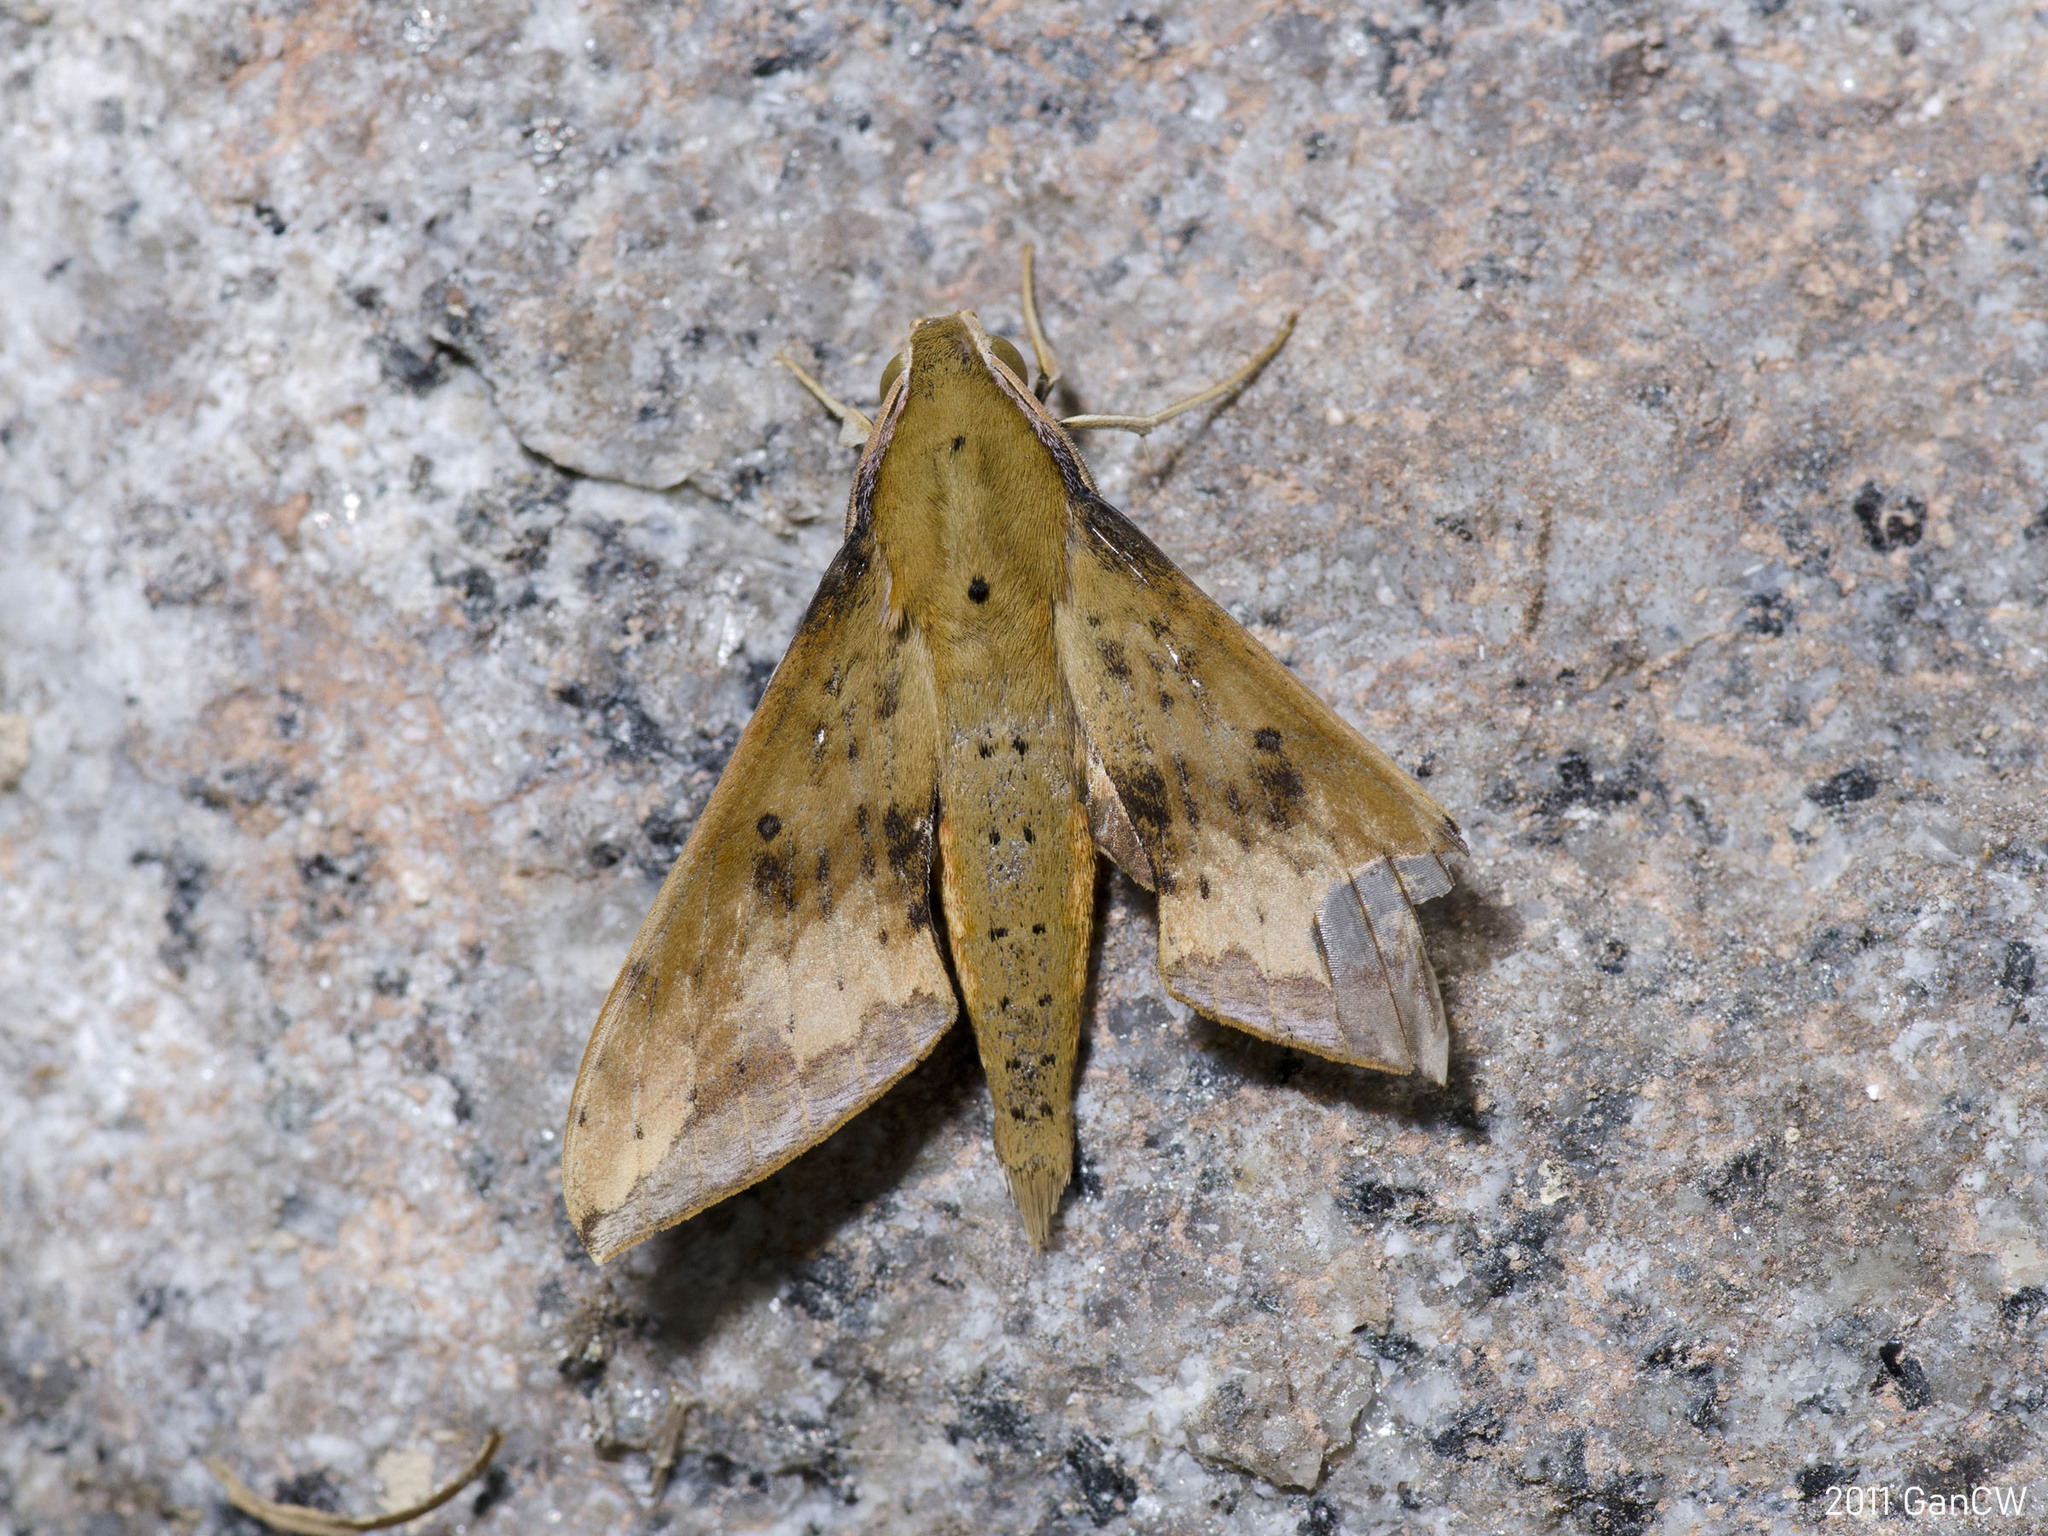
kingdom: Animalia
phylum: Arthropoda
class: Insecta
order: Lepidoptera
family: Sphingidae
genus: Rhagastis
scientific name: Rhagastis castor
